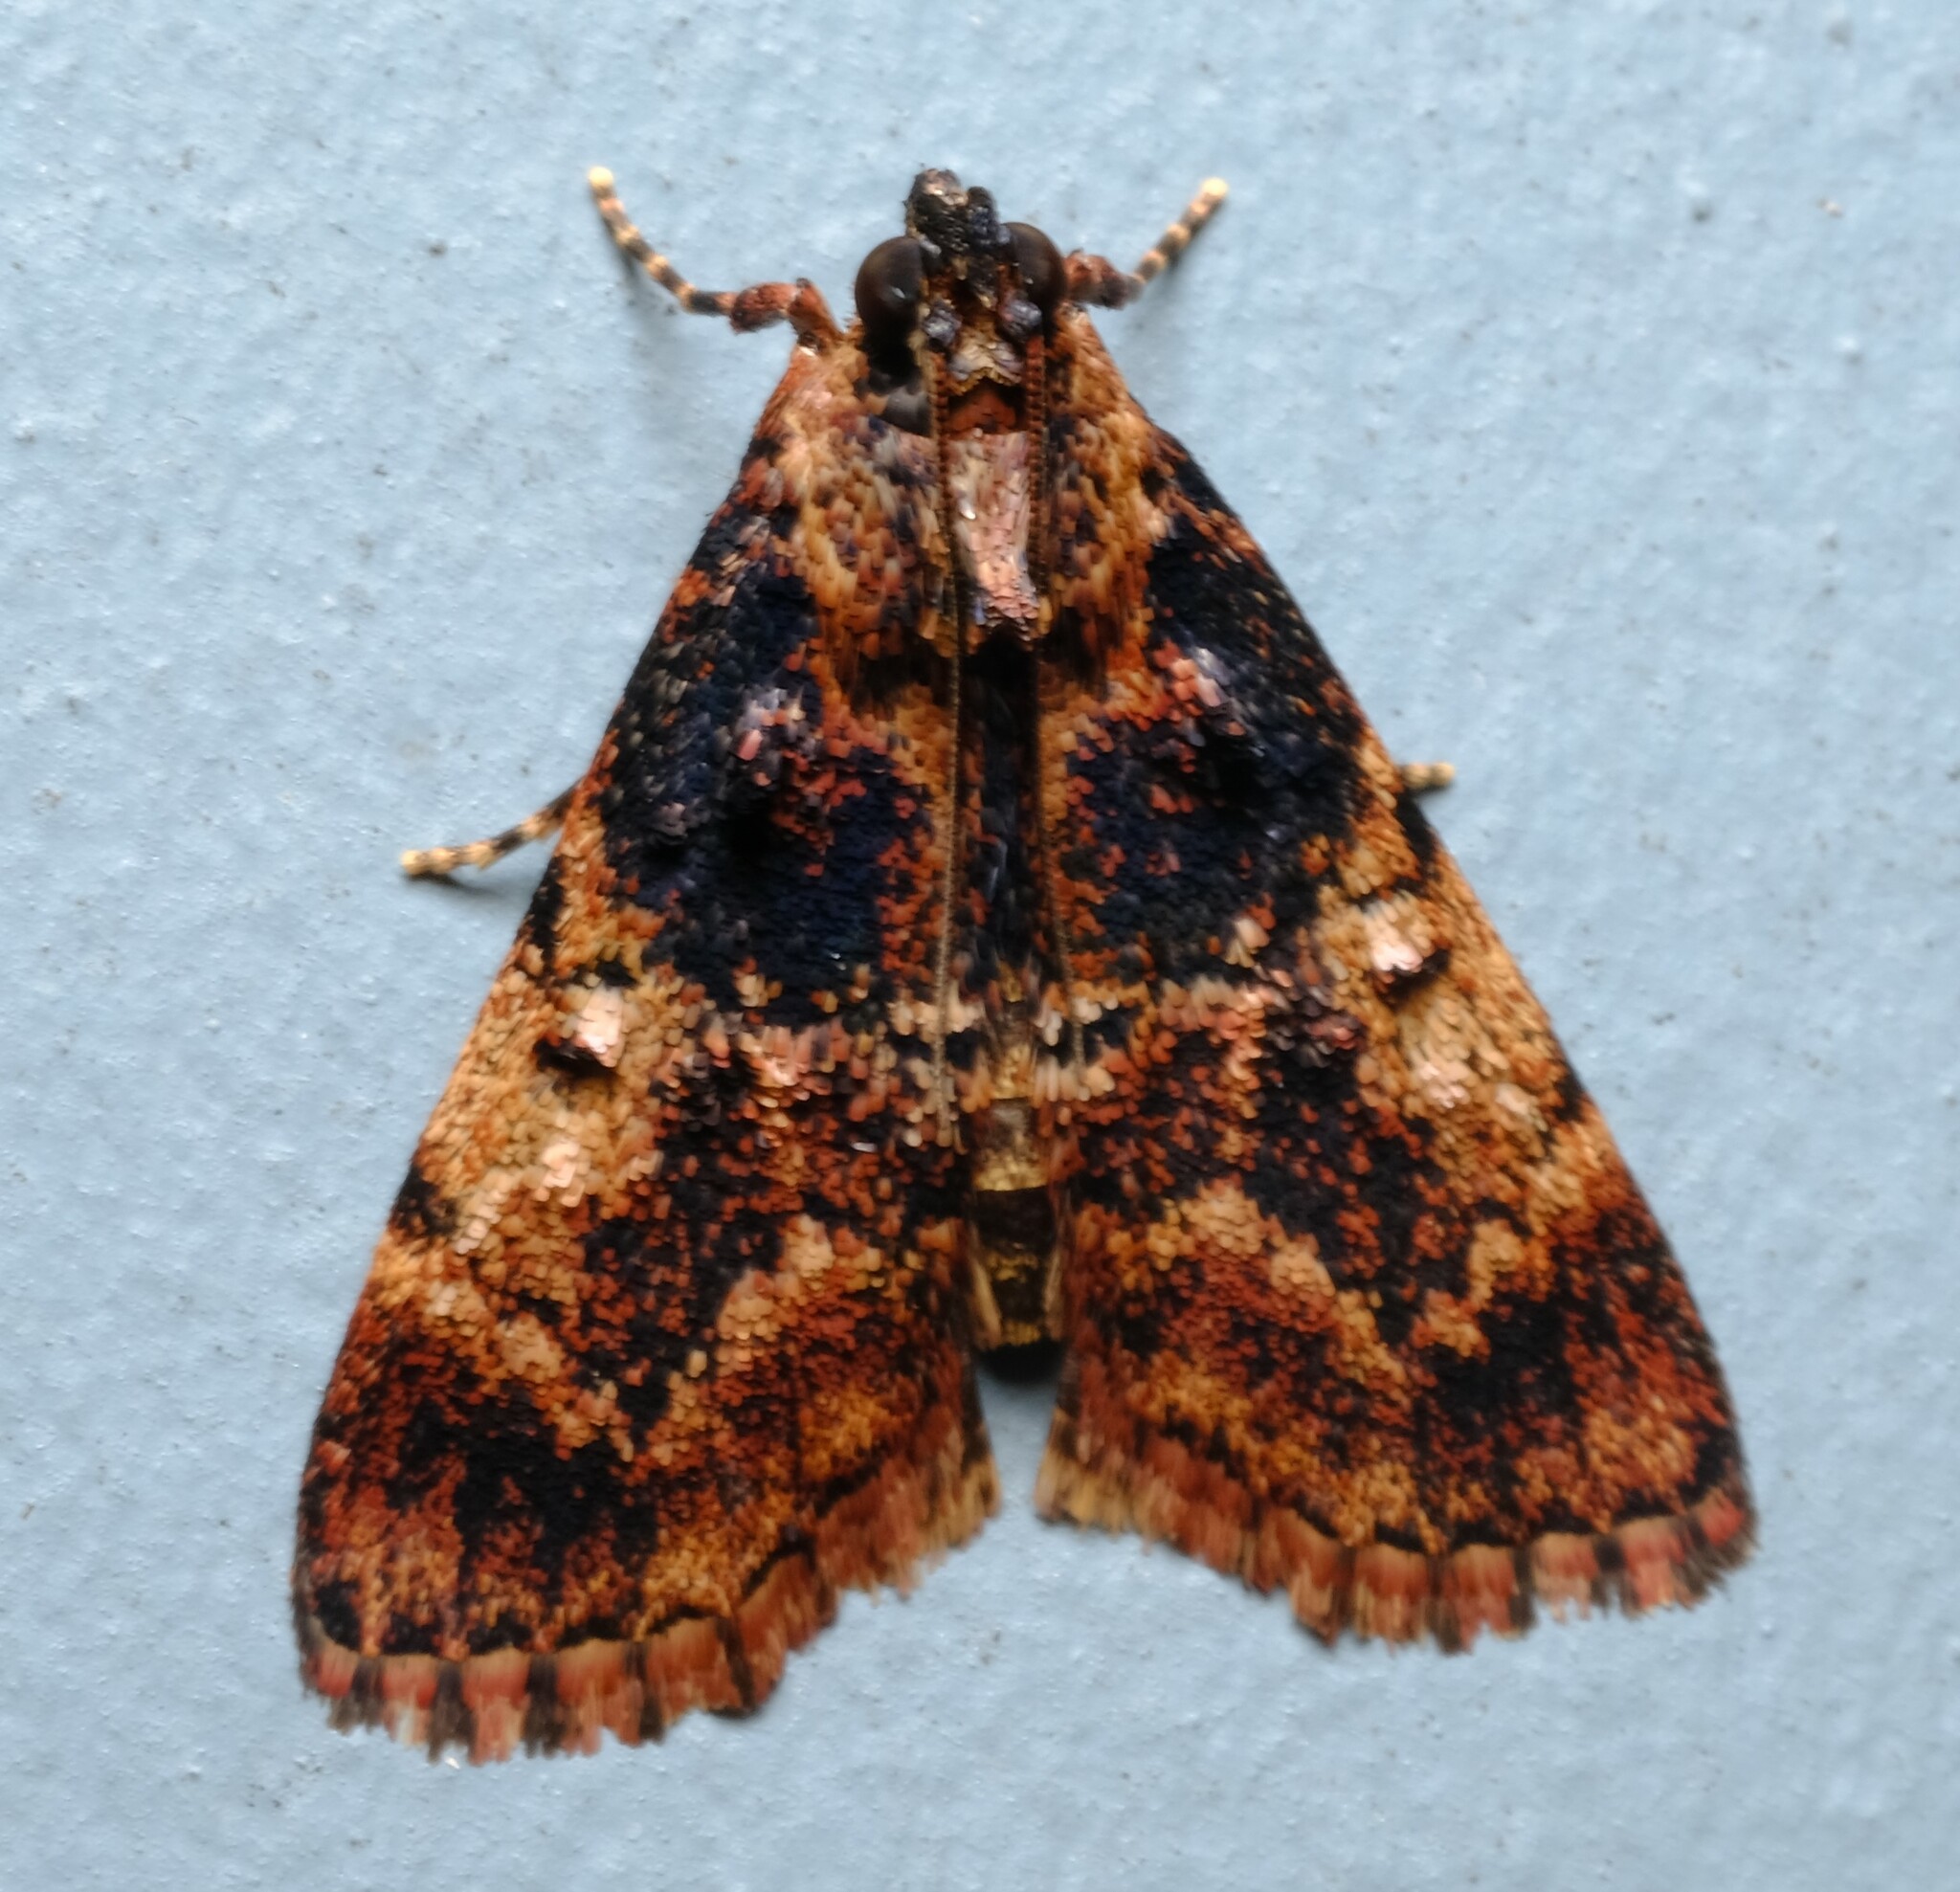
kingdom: Animalia
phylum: Arthropoda
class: Insecta
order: Lepidoptera
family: Pyralidae
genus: Orthaga
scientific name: Orthaga thyrisalis
